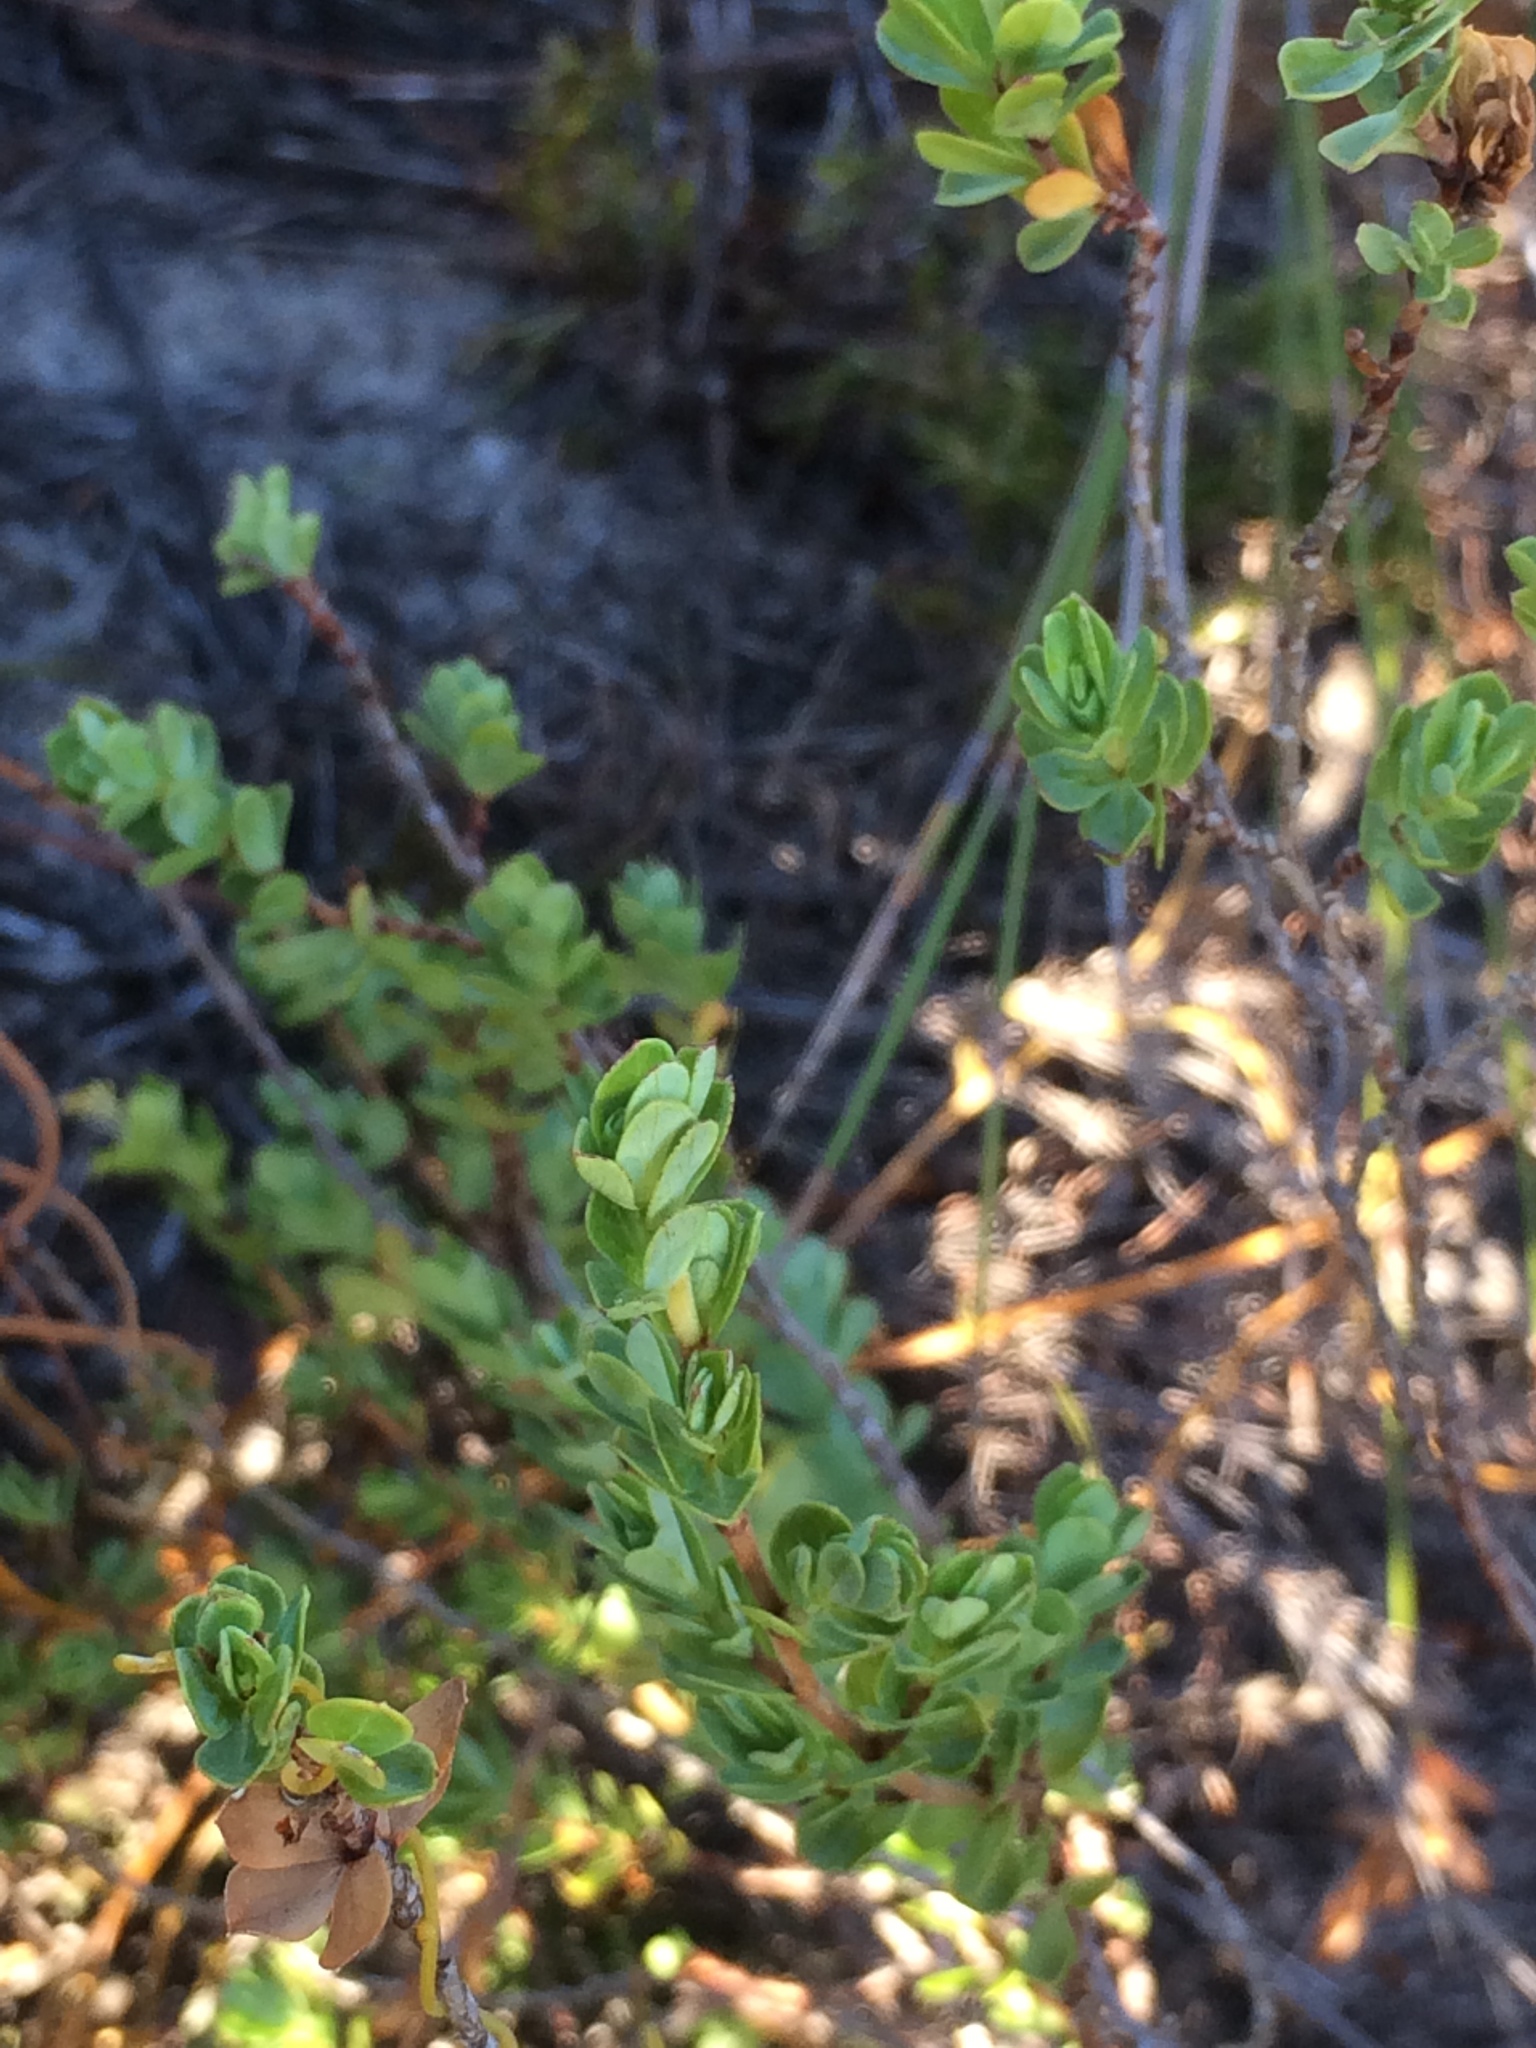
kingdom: Plantae
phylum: Tracheophyta
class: Magnoliopsida
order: Rosales
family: Rosaceae
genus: Cliffortia
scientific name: Cliffortia obcordata
